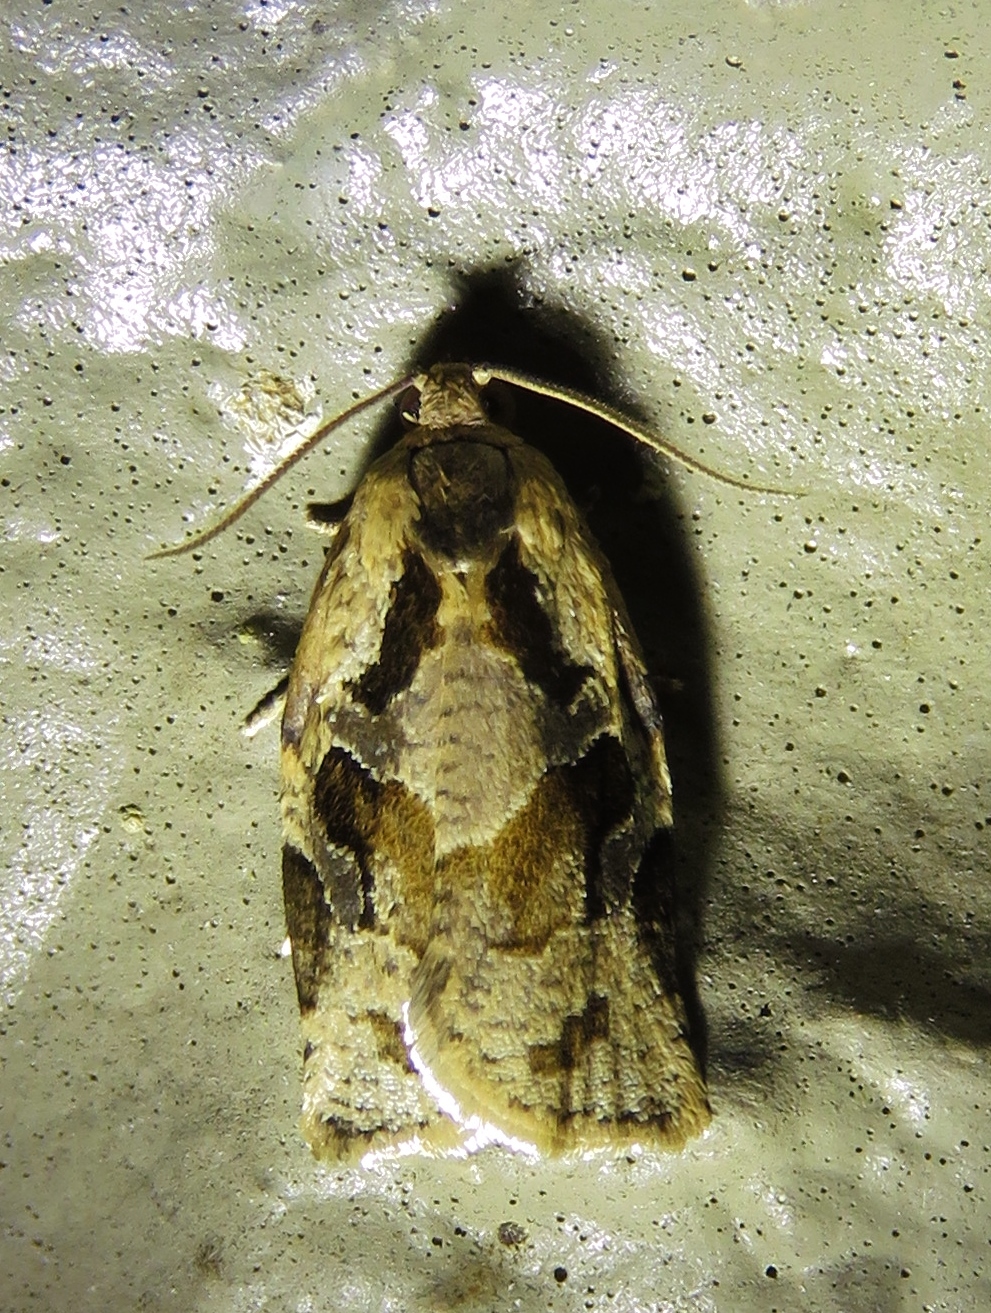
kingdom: Animalia
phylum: Arthropoda
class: Insecta
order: Lepidoptera
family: Tortricidae
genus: Archips
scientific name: Archips grisea
